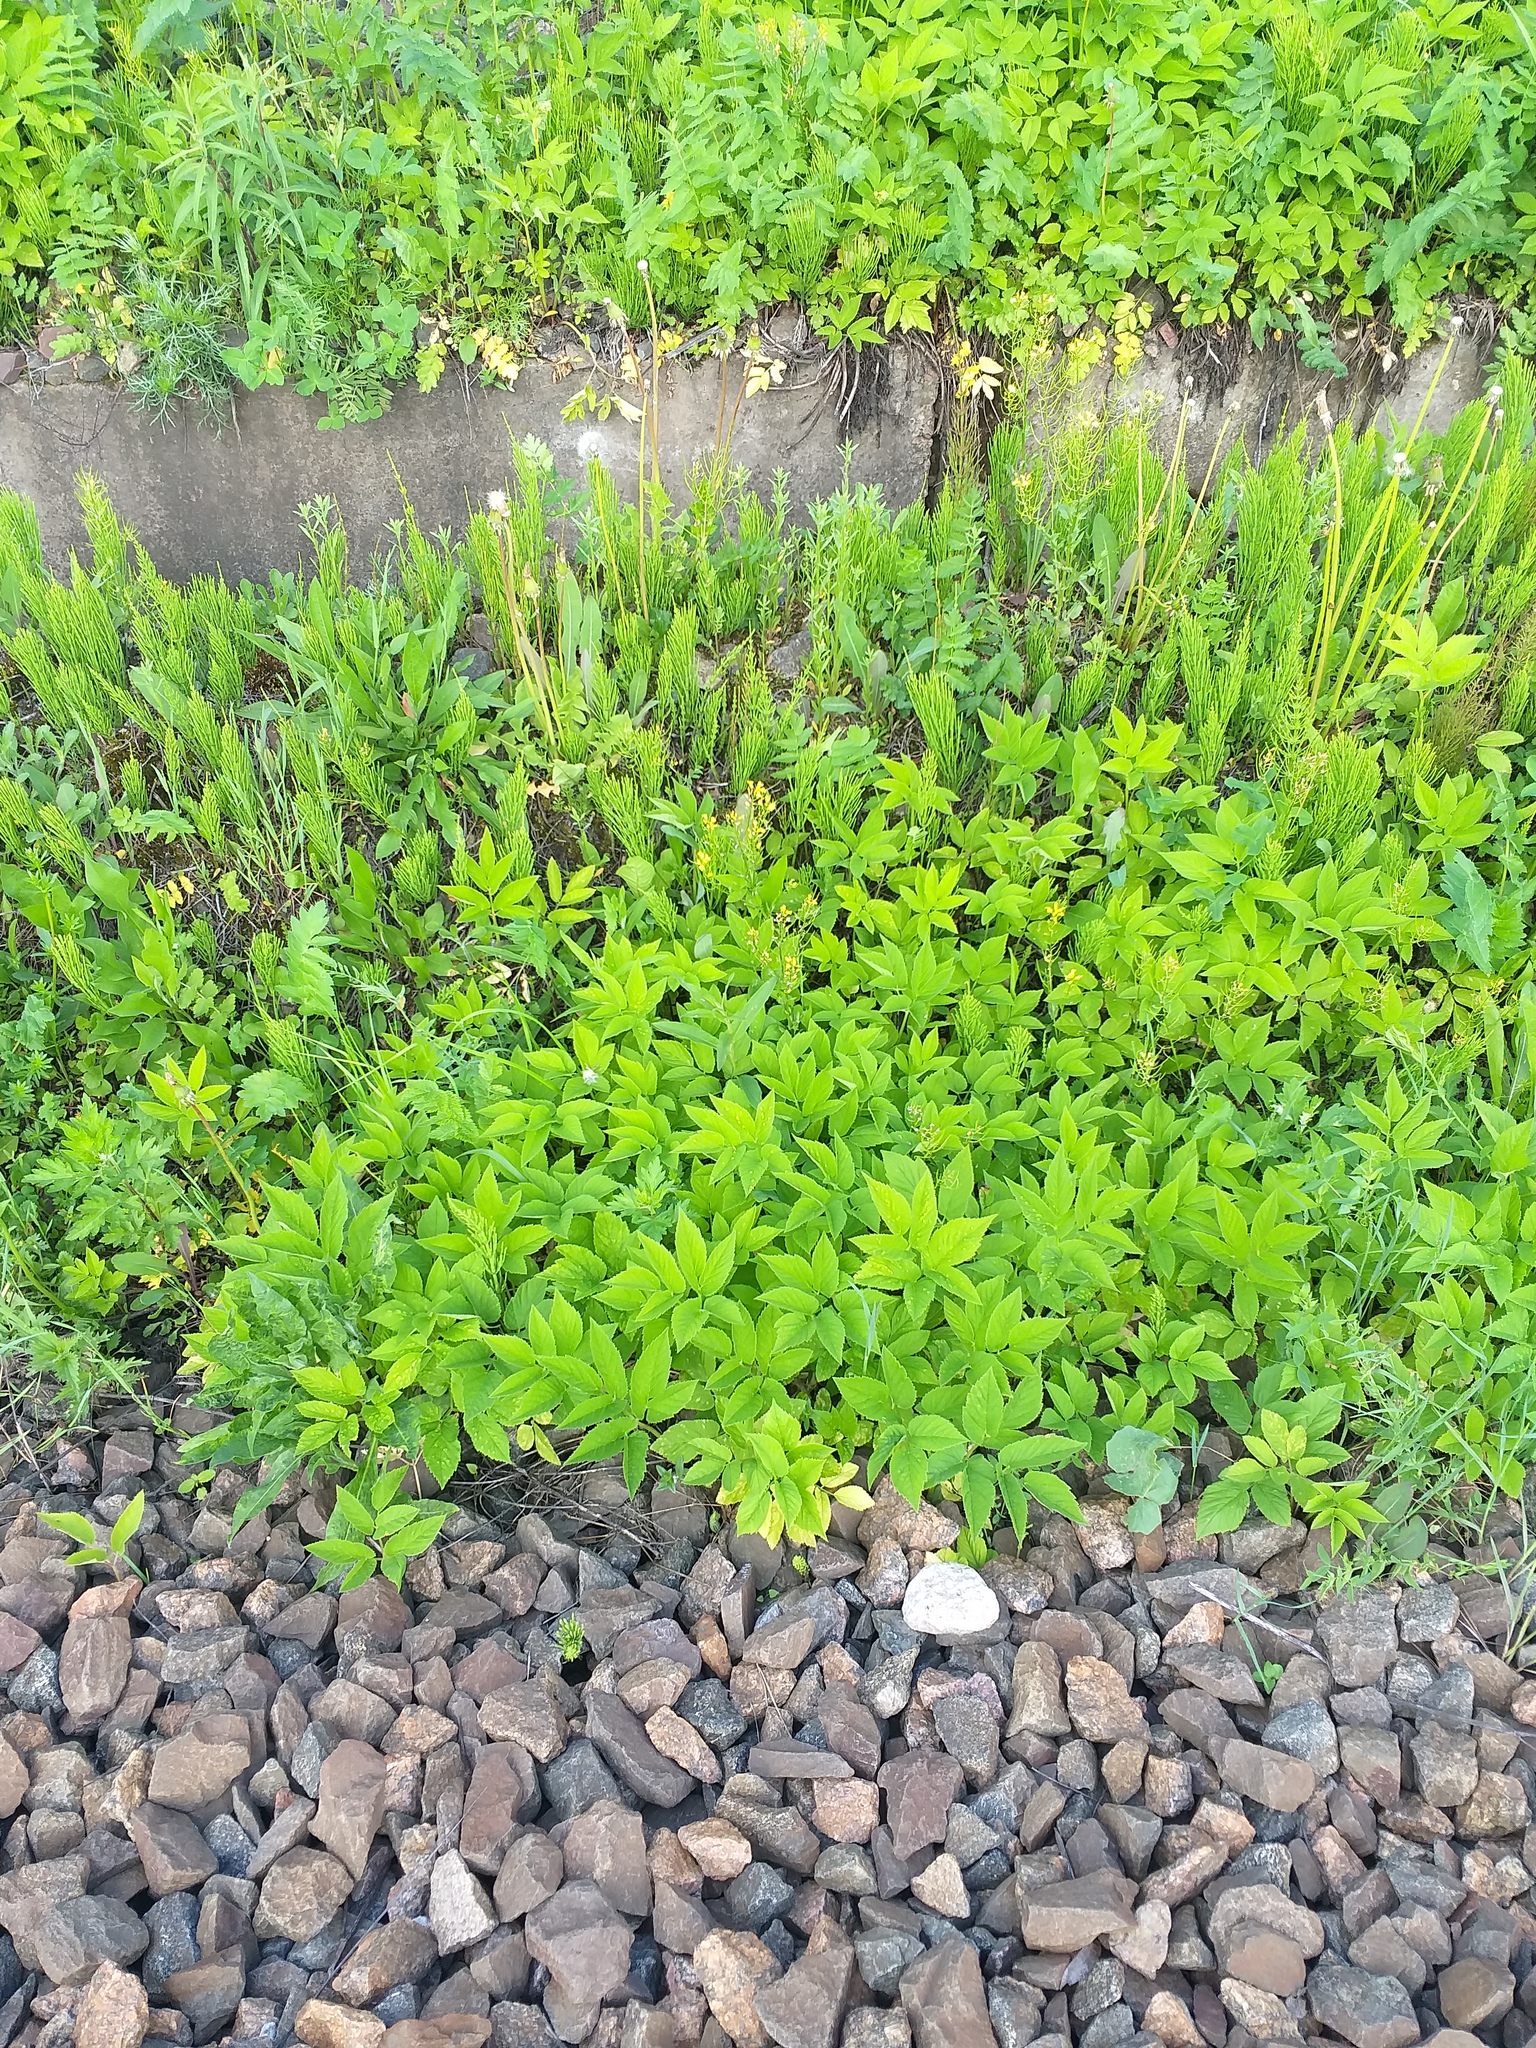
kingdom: Plantae
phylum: Tracheophyta
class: Magnoliopsida
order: Apiales
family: Apiaceae
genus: Aegopodium
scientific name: Aegopodium podagraria
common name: Ground-elder
